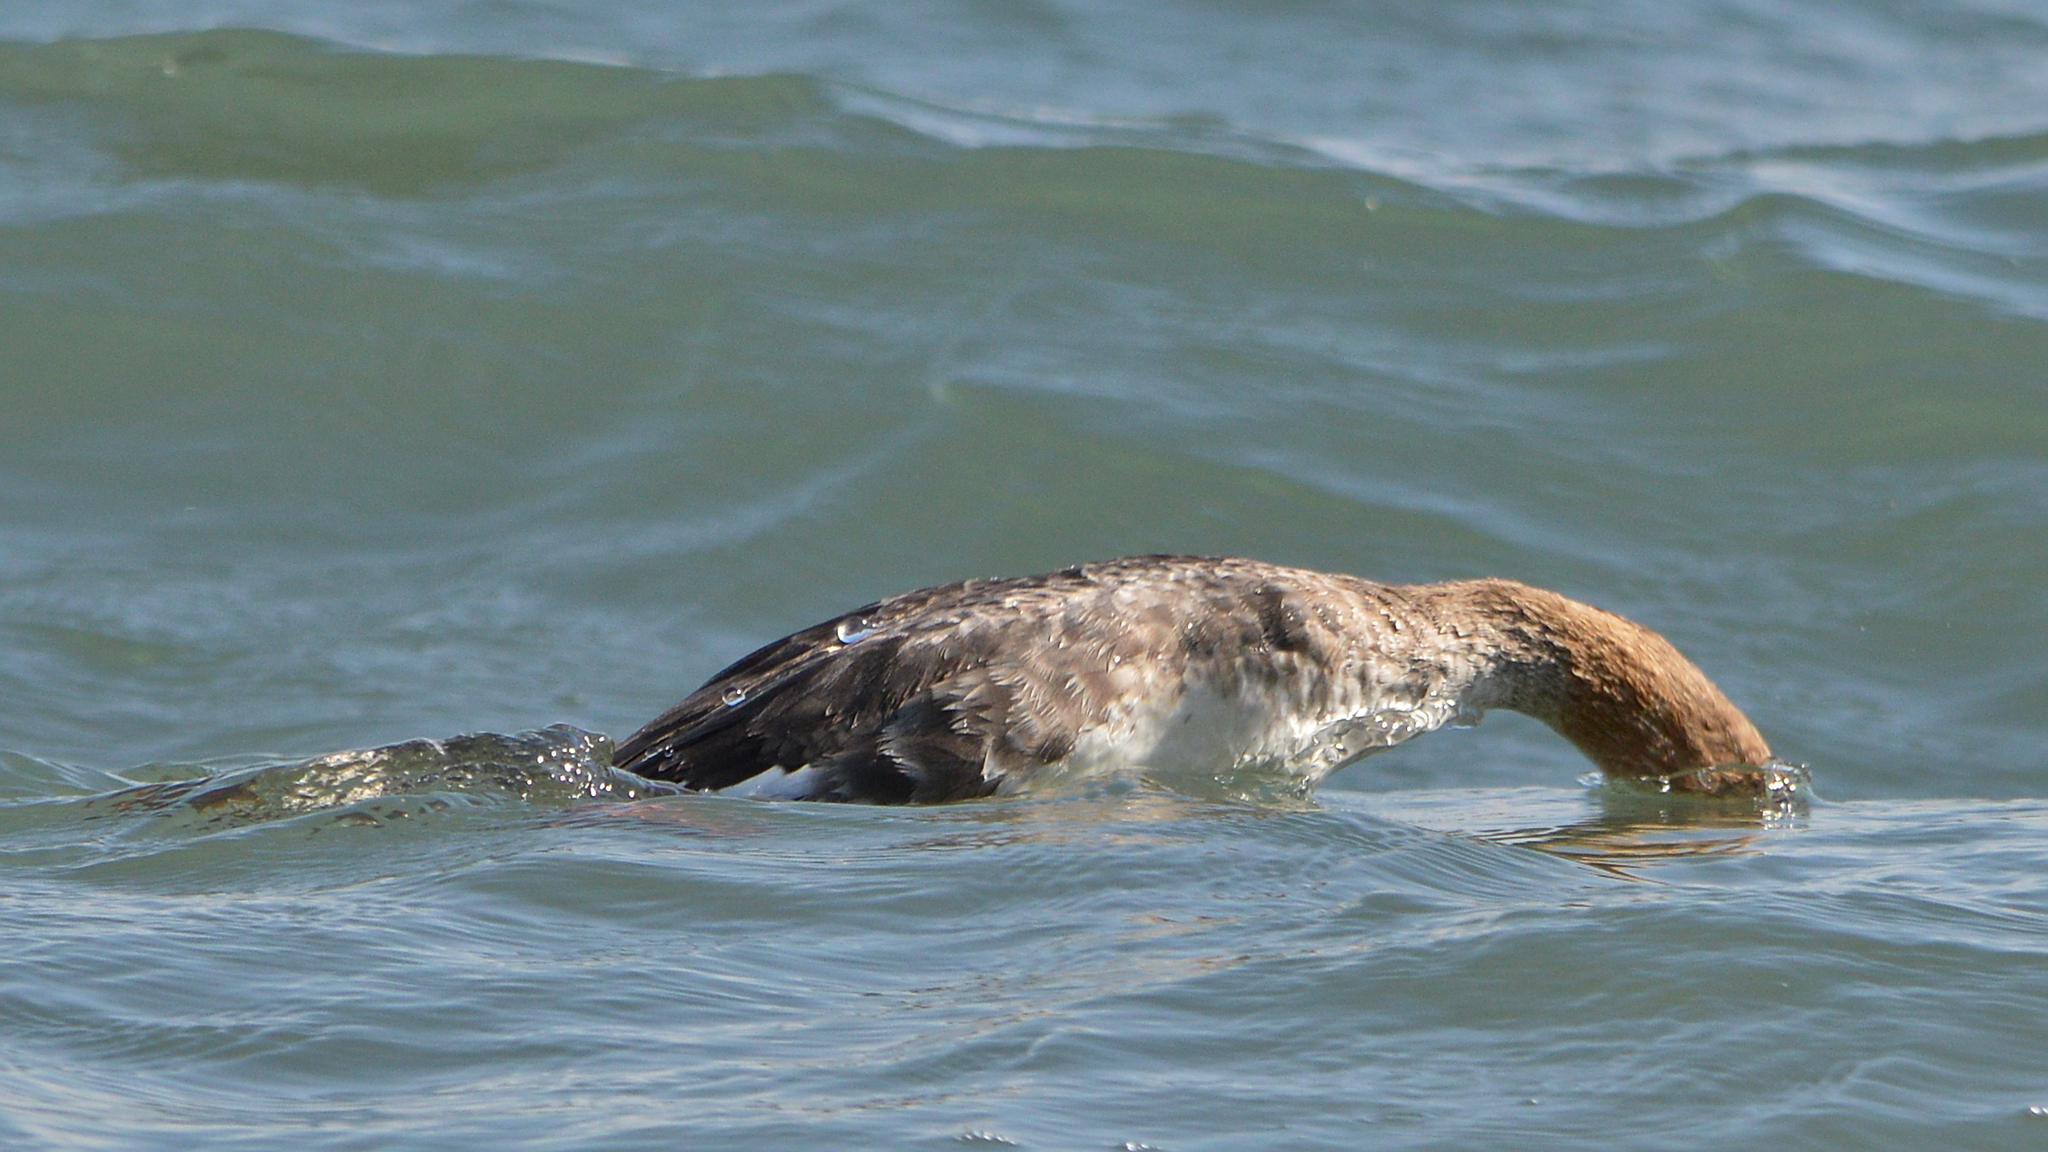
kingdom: Animalia
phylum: Chordata
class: Aves
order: Anseriformes
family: Anatidae
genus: Mergus
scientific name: Mergus serrator
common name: Red-breasted merganser
